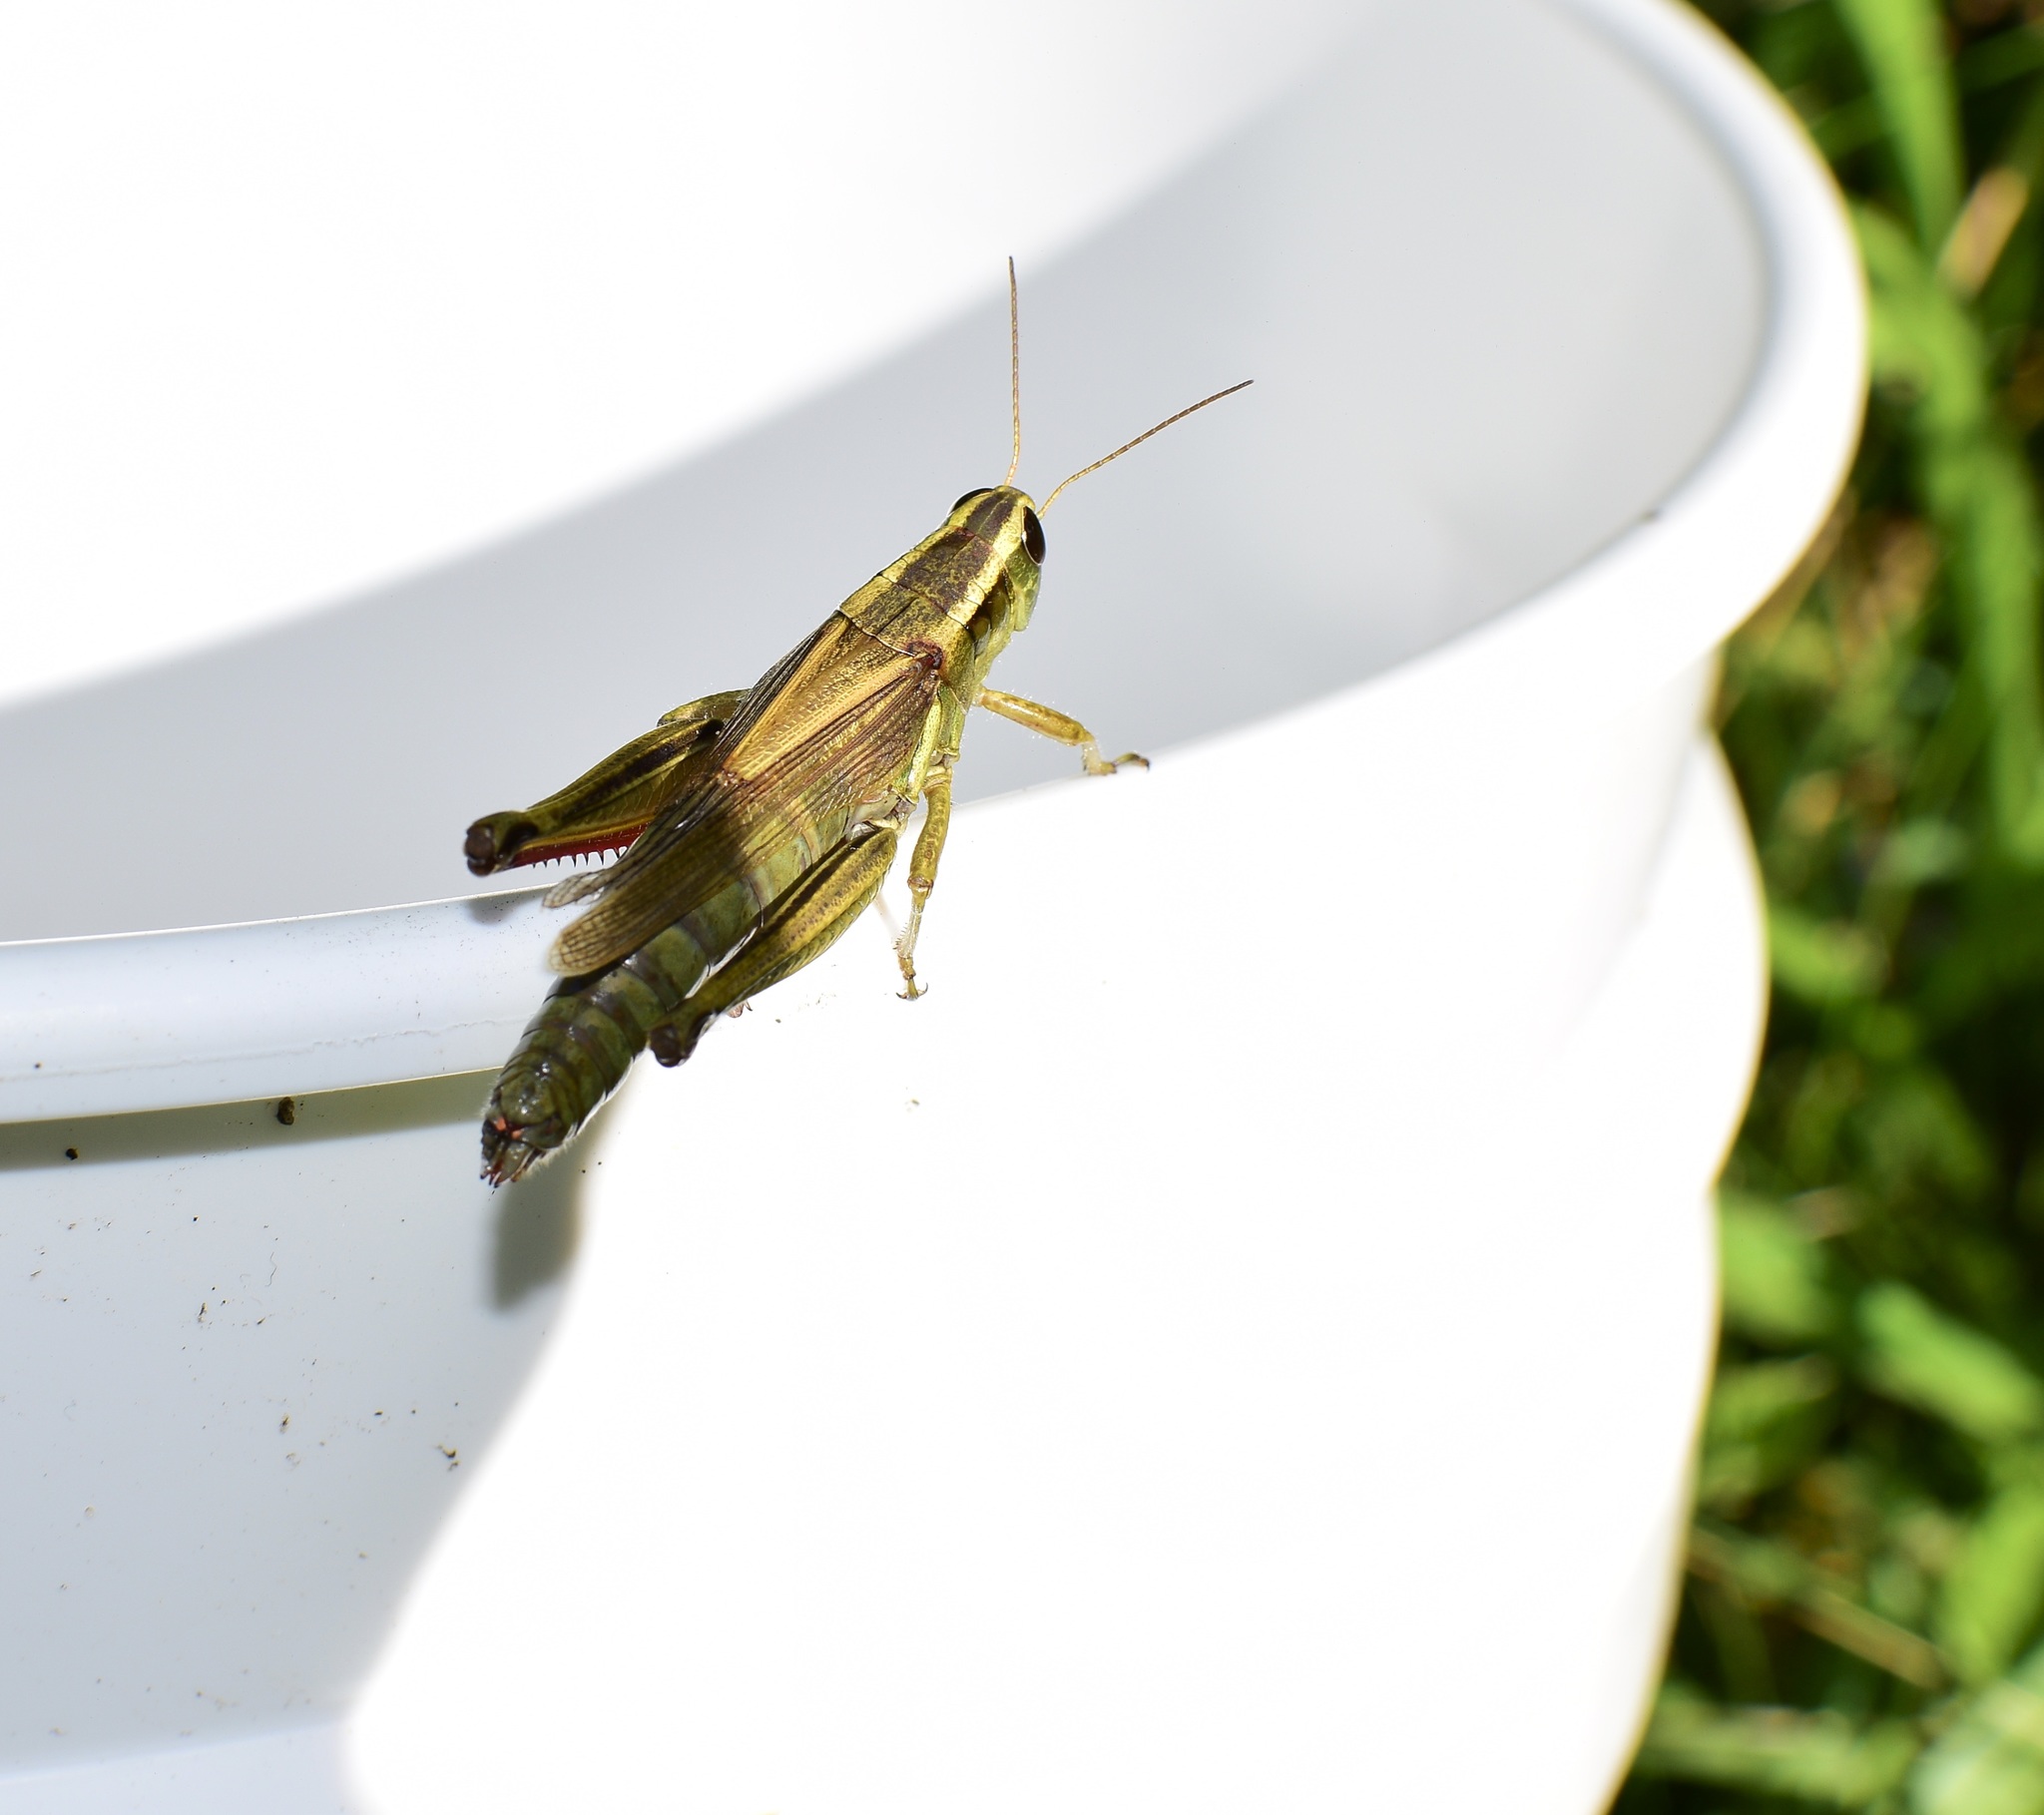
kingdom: Animalia
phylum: Arthropoda
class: Insecta
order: Orthoptera
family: Acrididae
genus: Melanoplus
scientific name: Melanoplus bivittatus
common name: Two-striped grasshopper
